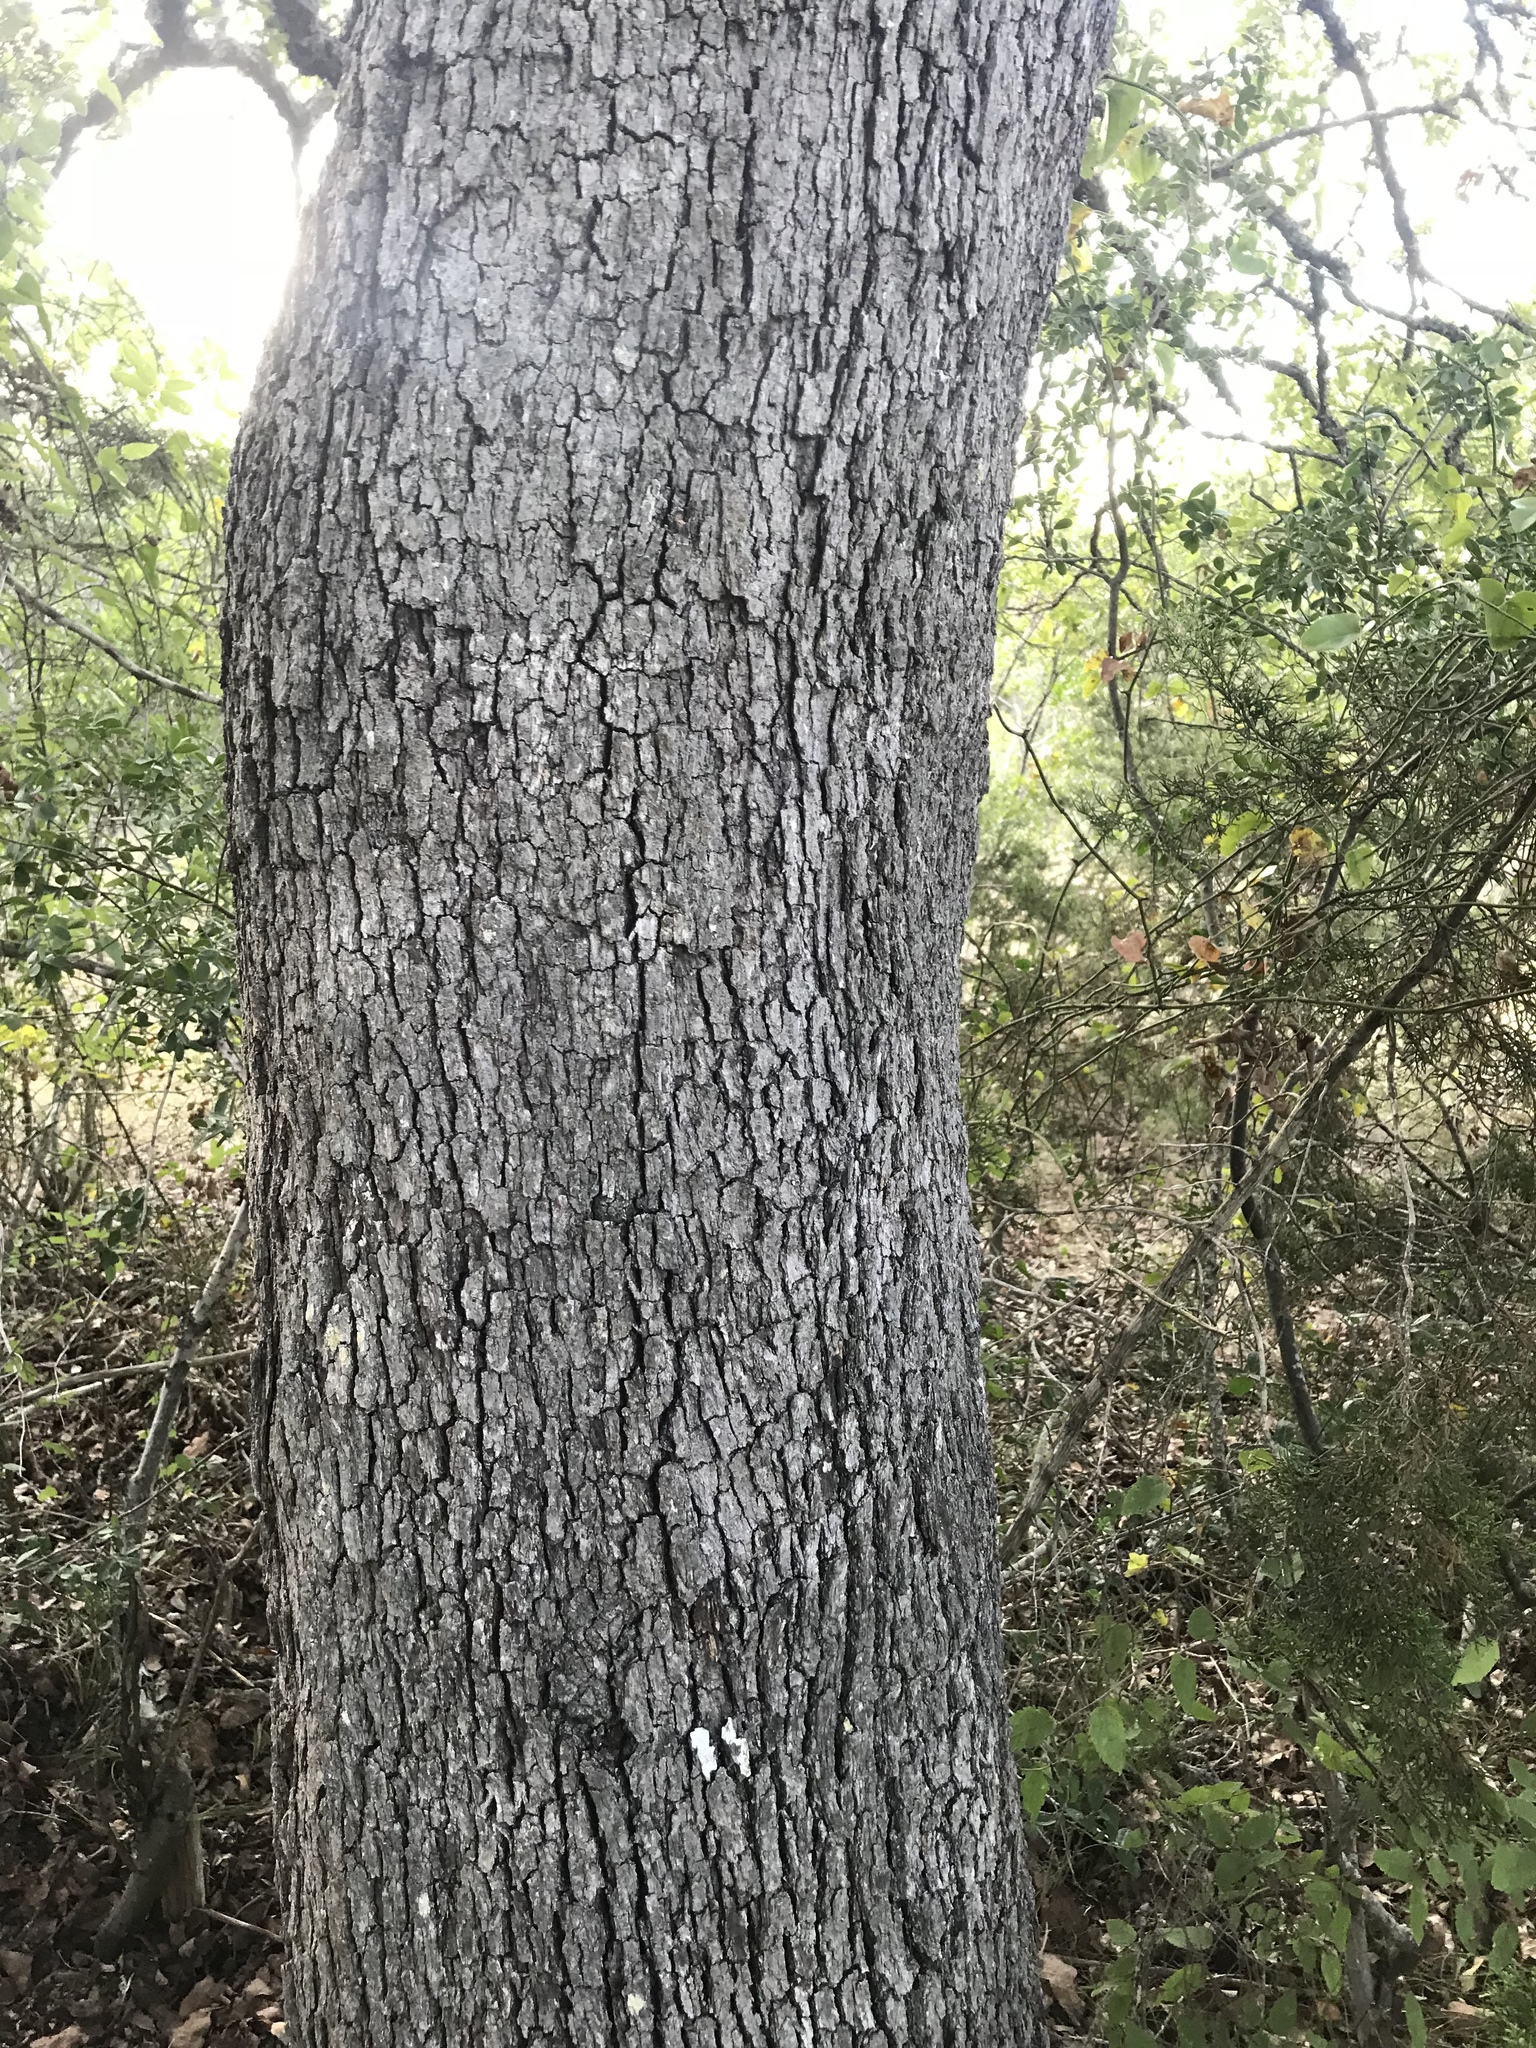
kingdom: Plantae
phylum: Tracheophyta
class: Magnoliopsida
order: Fagales
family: Fagaceae
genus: Quercus
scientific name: Quercus laceyi
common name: Lacey oak
